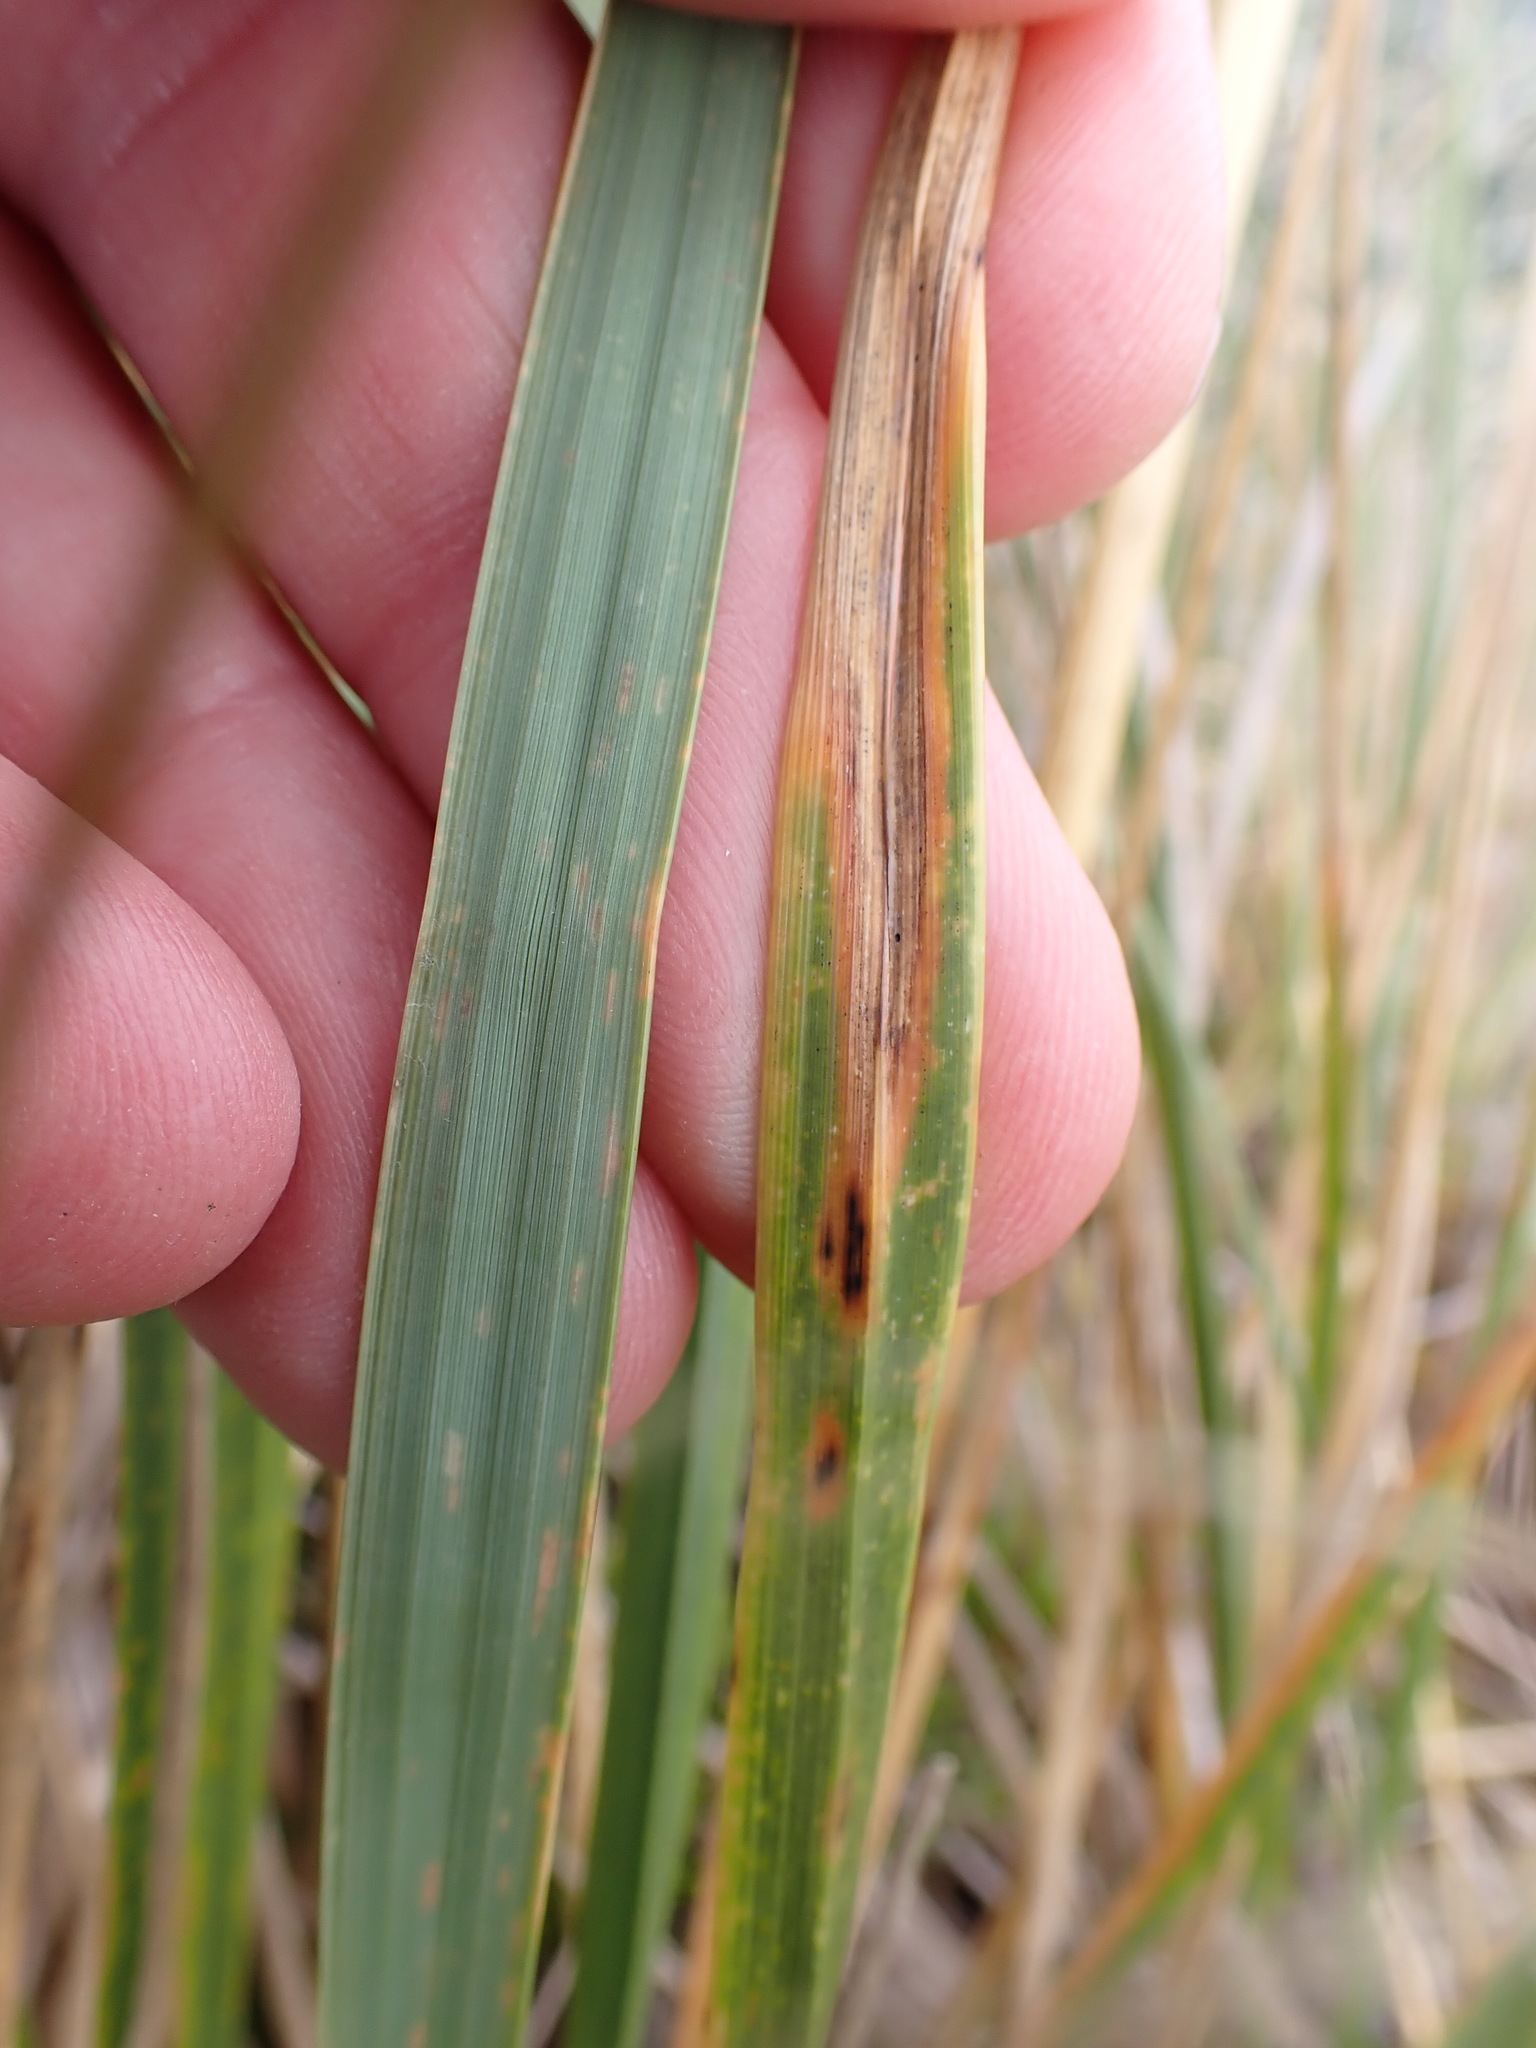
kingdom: Plantae
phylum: Tracheophyta
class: Liliopsida
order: Poales
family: Poaceae
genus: Chionochloa
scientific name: Chionochloa flavescens
